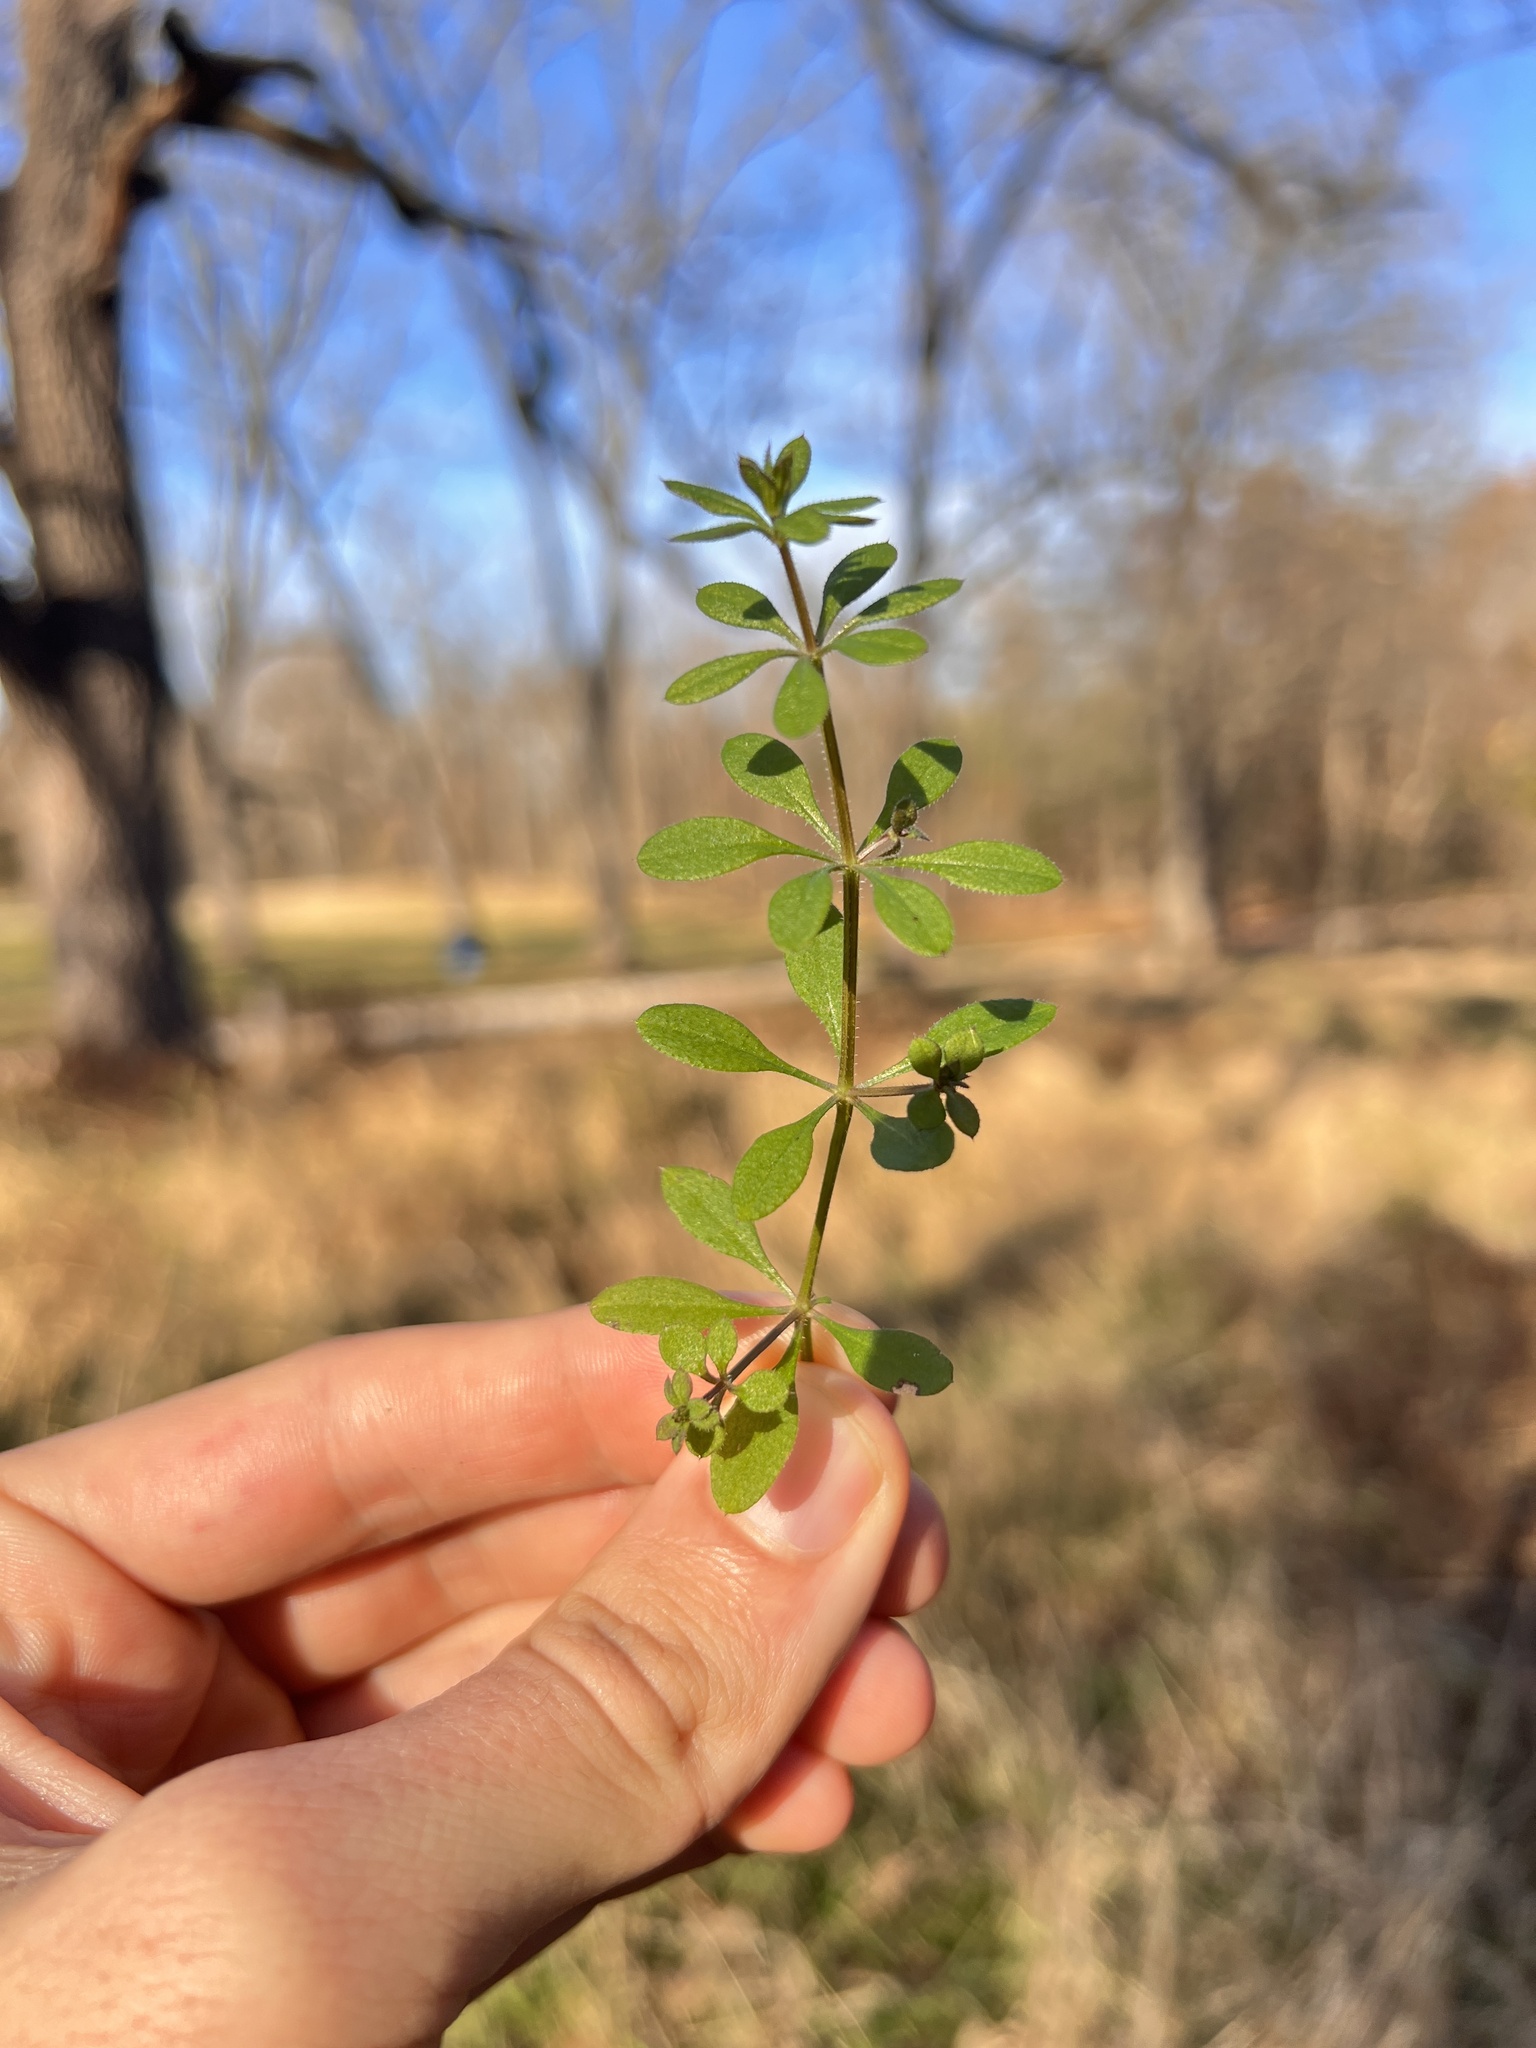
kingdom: Plantae
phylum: Tracheophyta
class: Magnoliopsida
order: Gentianales
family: Rubiaceae
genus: Galium
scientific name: Galium aparine
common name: Cleavers
